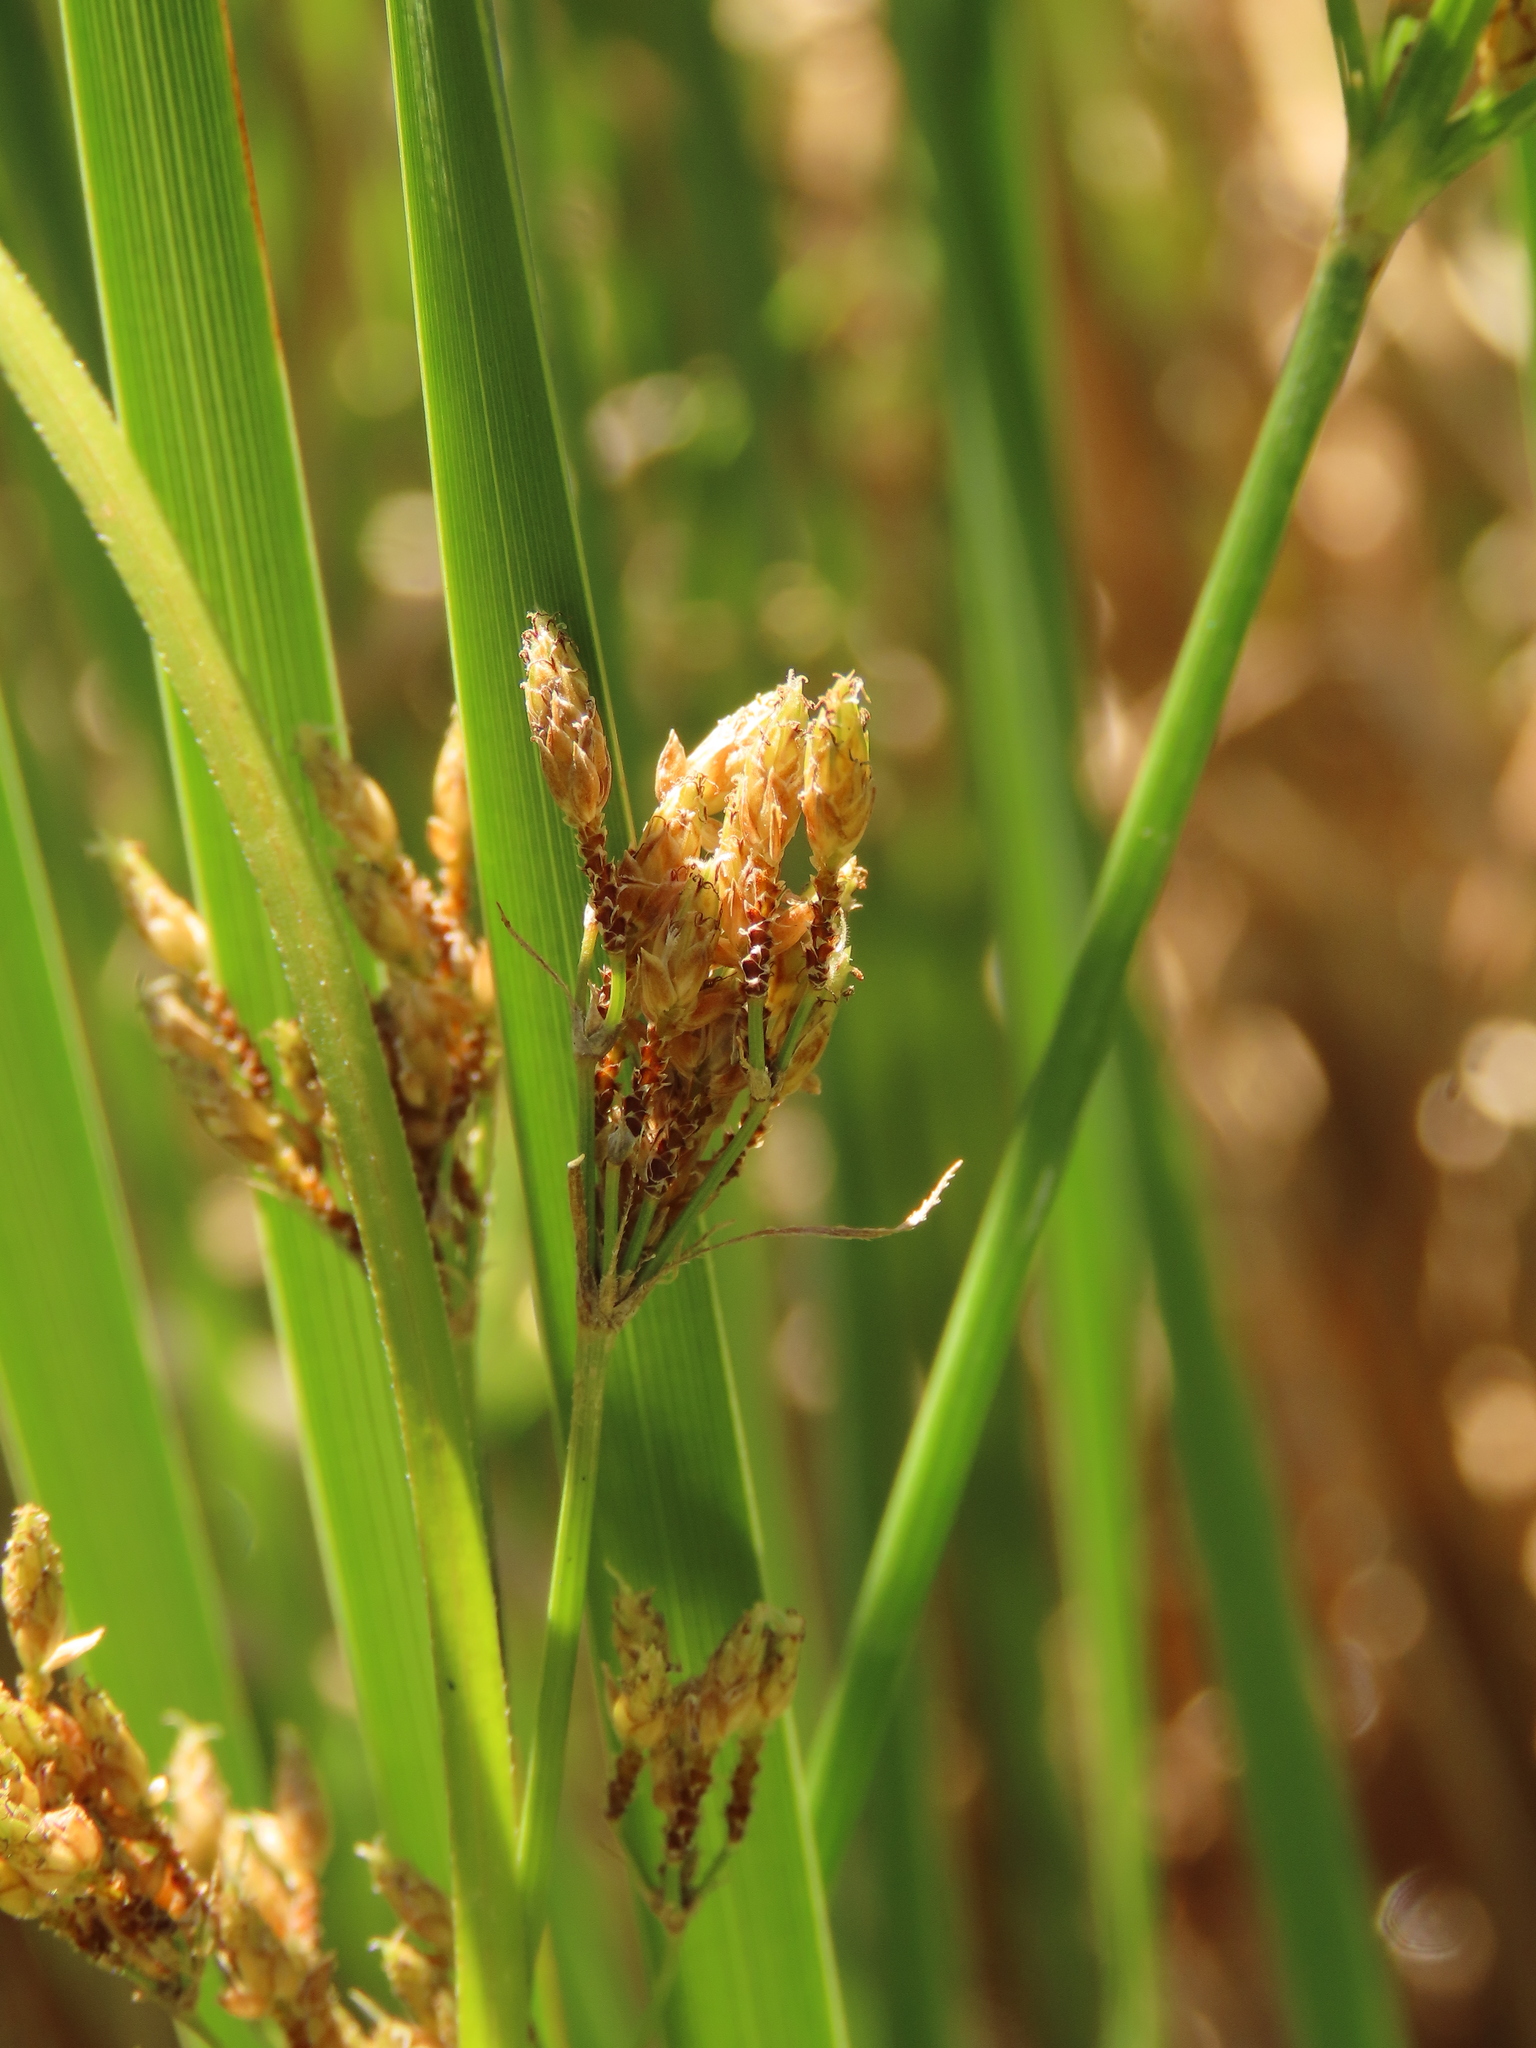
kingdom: Plantae
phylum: Tracheophyta
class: Liliopsida
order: Poales
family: Cyperaceae
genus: Fimbristylis
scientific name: Fimbristylis dichotoma
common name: Forked fimbry
